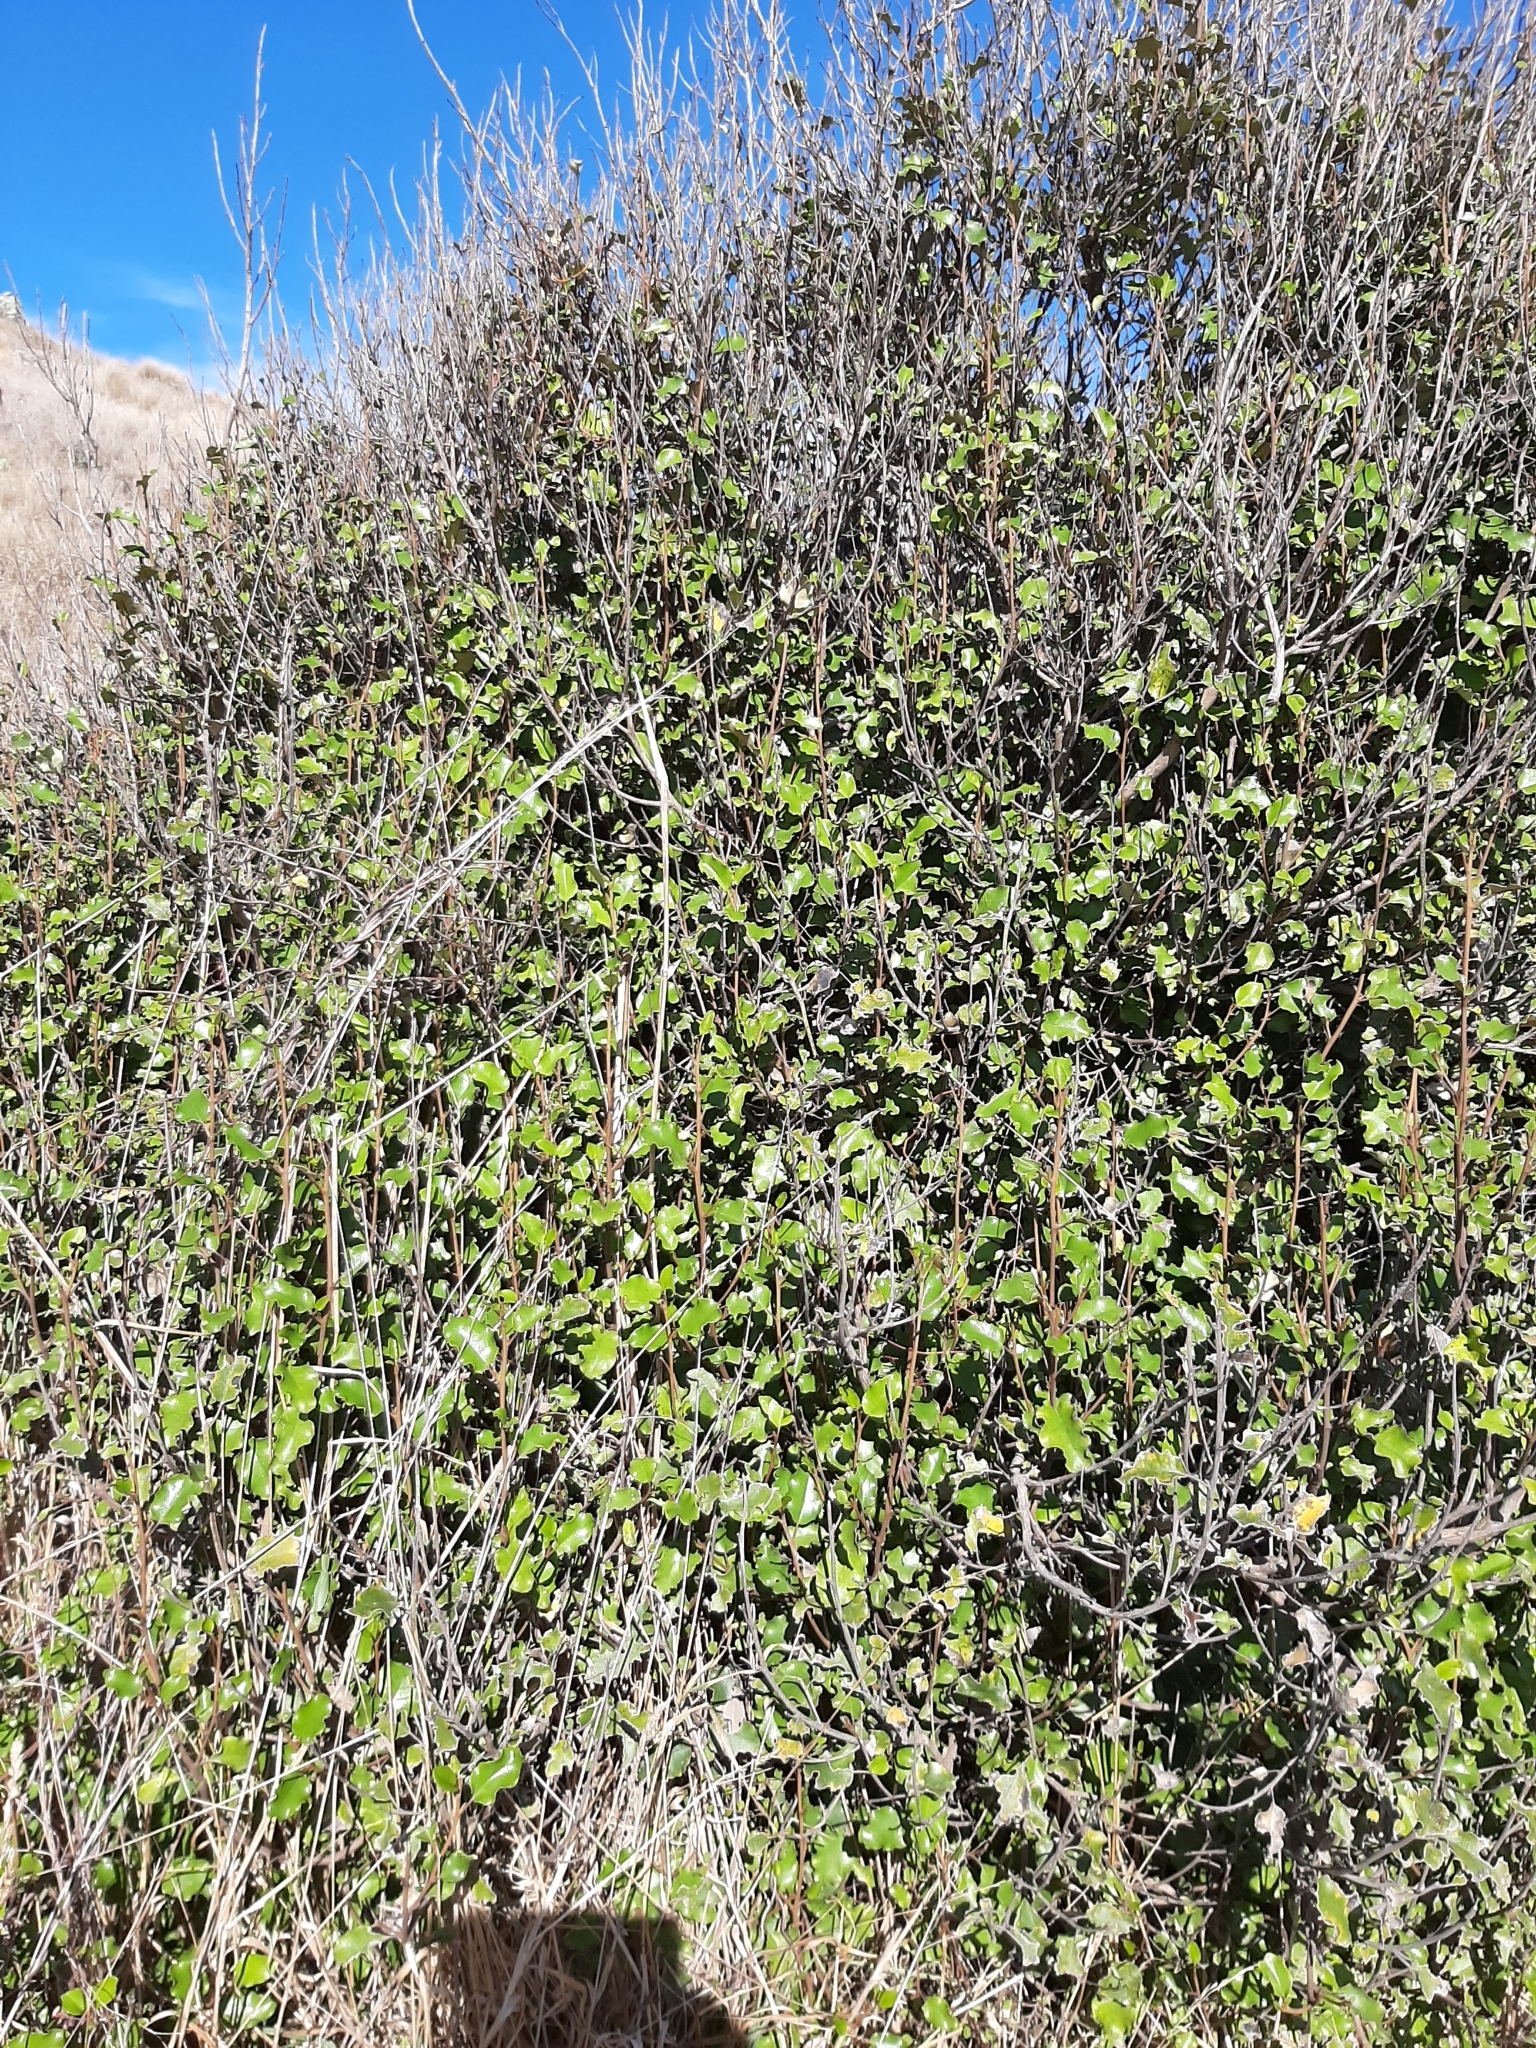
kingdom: Plantae
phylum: Tracheophyta
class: Magnoliopsida
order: Asterales
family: Asteraceae
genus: Olearia
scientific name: Olearia paniculata
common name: Akiraho
